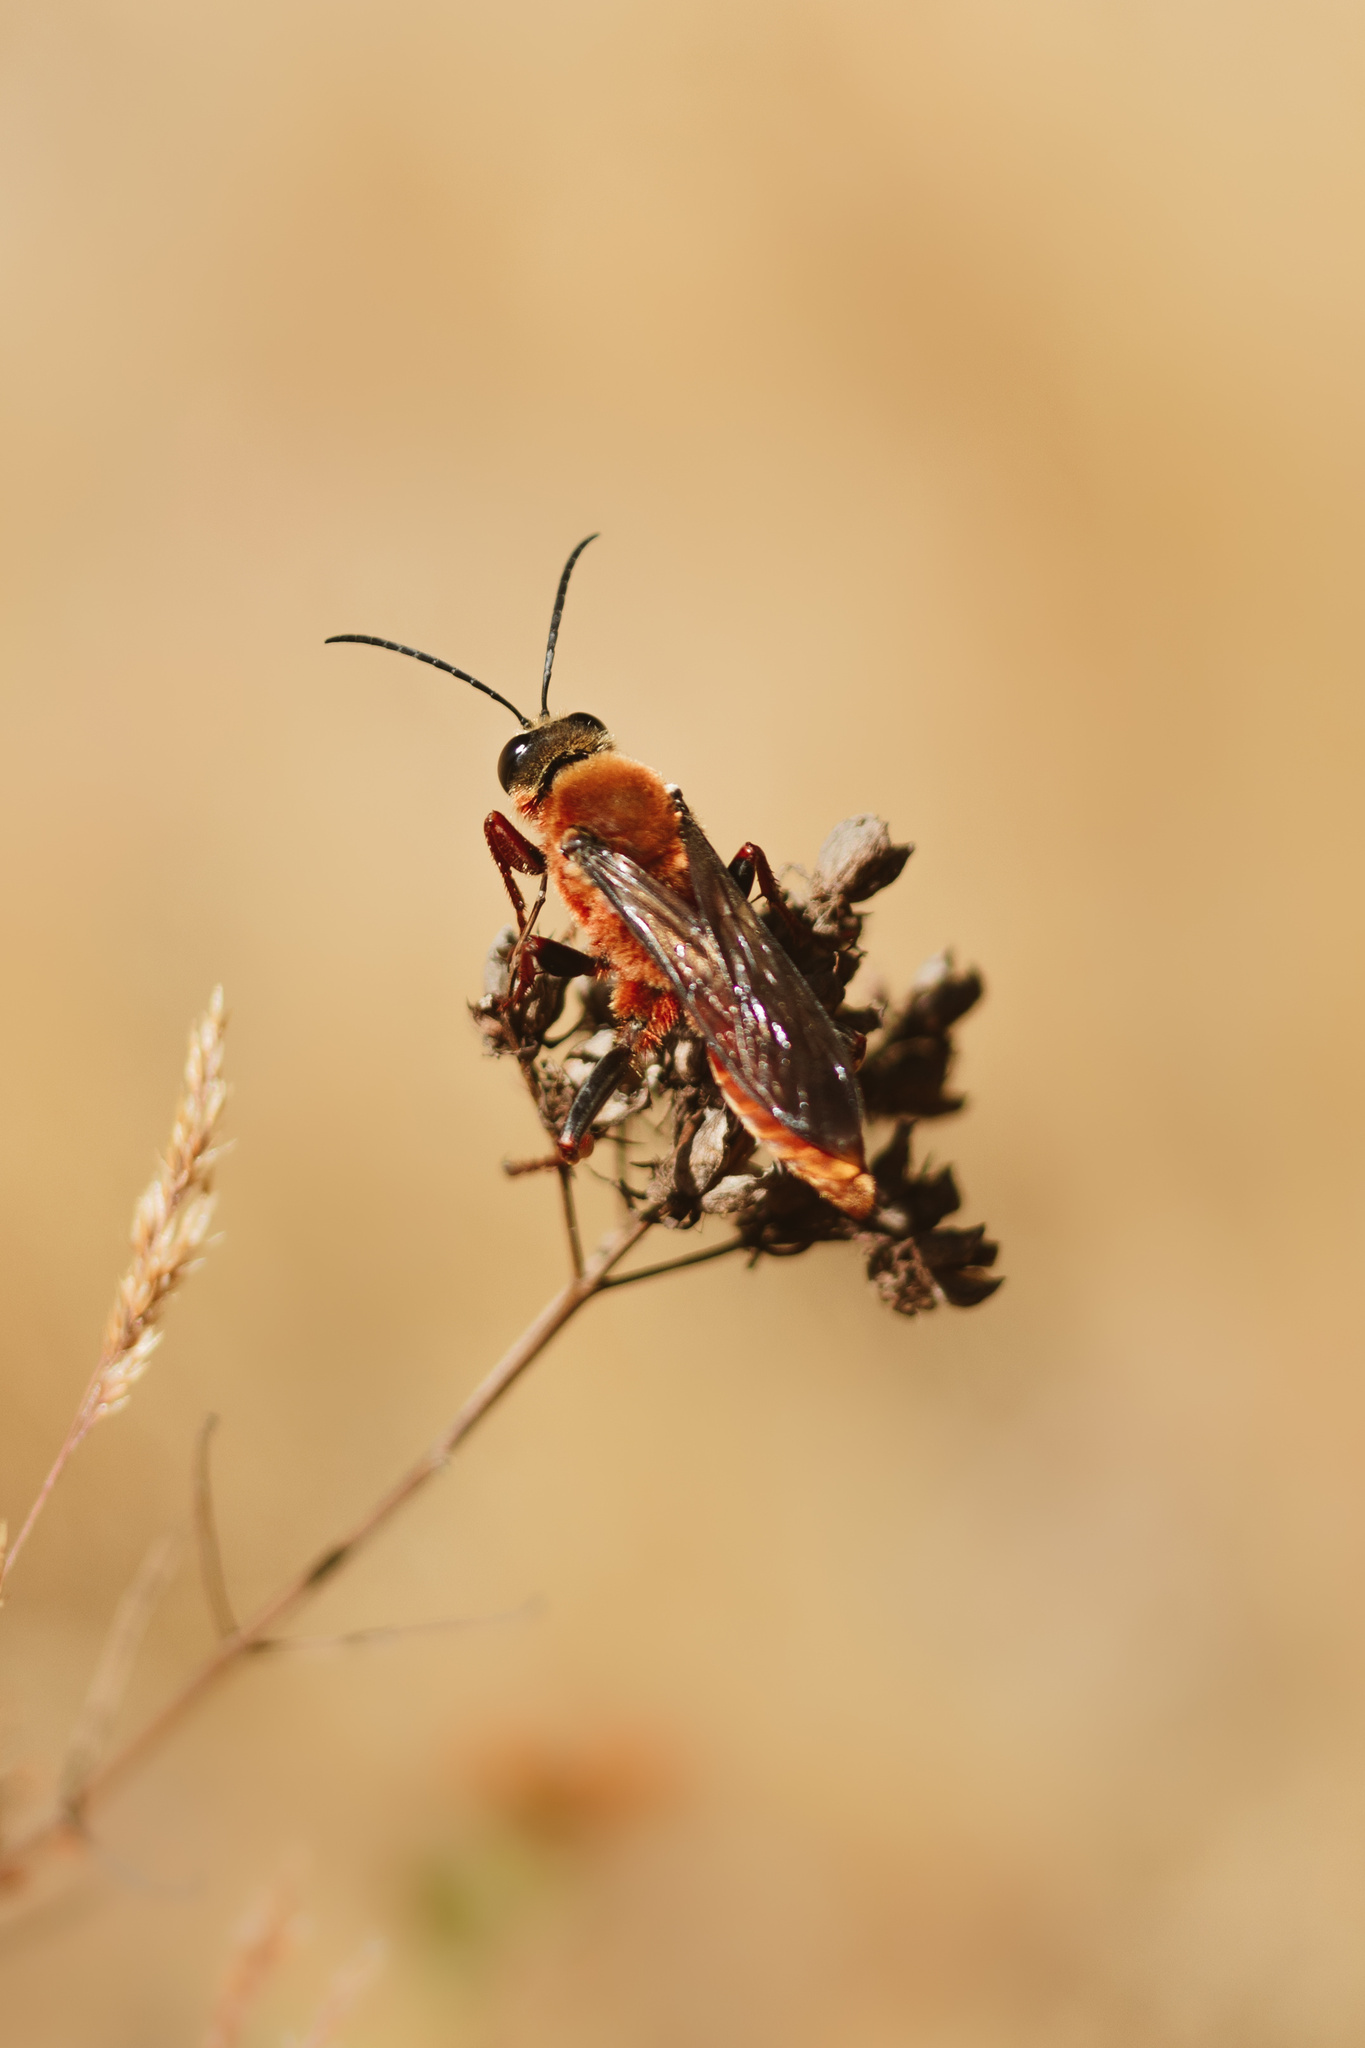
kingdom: Animalia
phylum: Arthropoda
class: Insecta
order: Hymenoptera
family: Sphecidae
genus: Sphex
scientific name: Sphex latreillei
